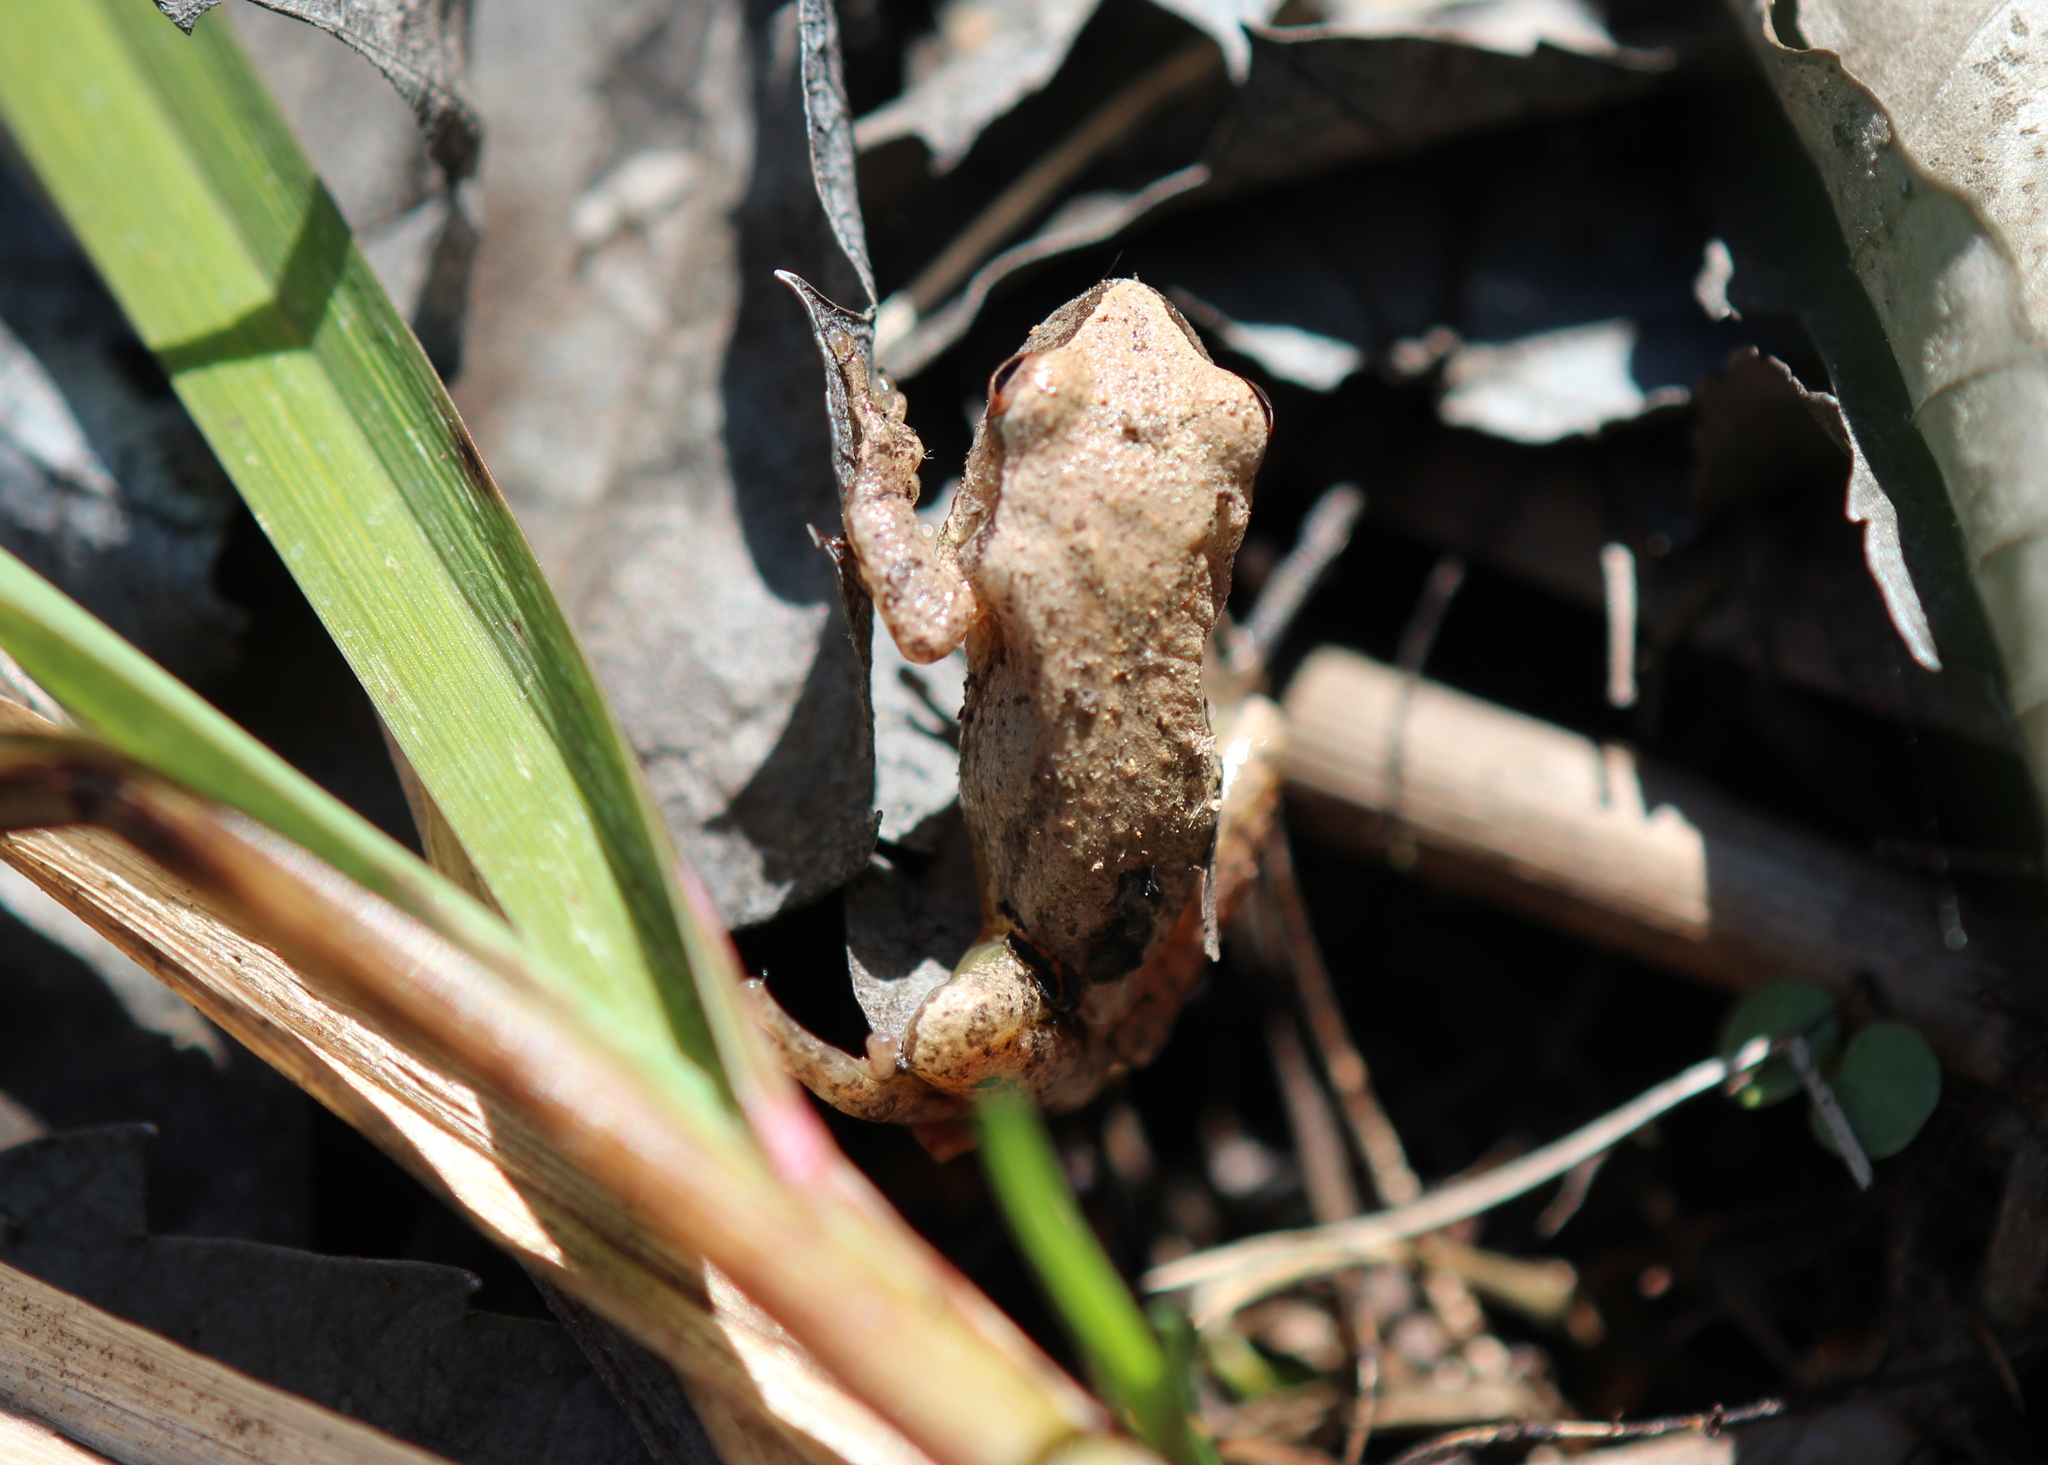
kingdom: Animalia
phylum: Chordata
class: Amphibia
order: Anura
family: Hylidae
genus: Pseudacris
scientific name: Pseudacris crucifer
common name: Spring peeper
